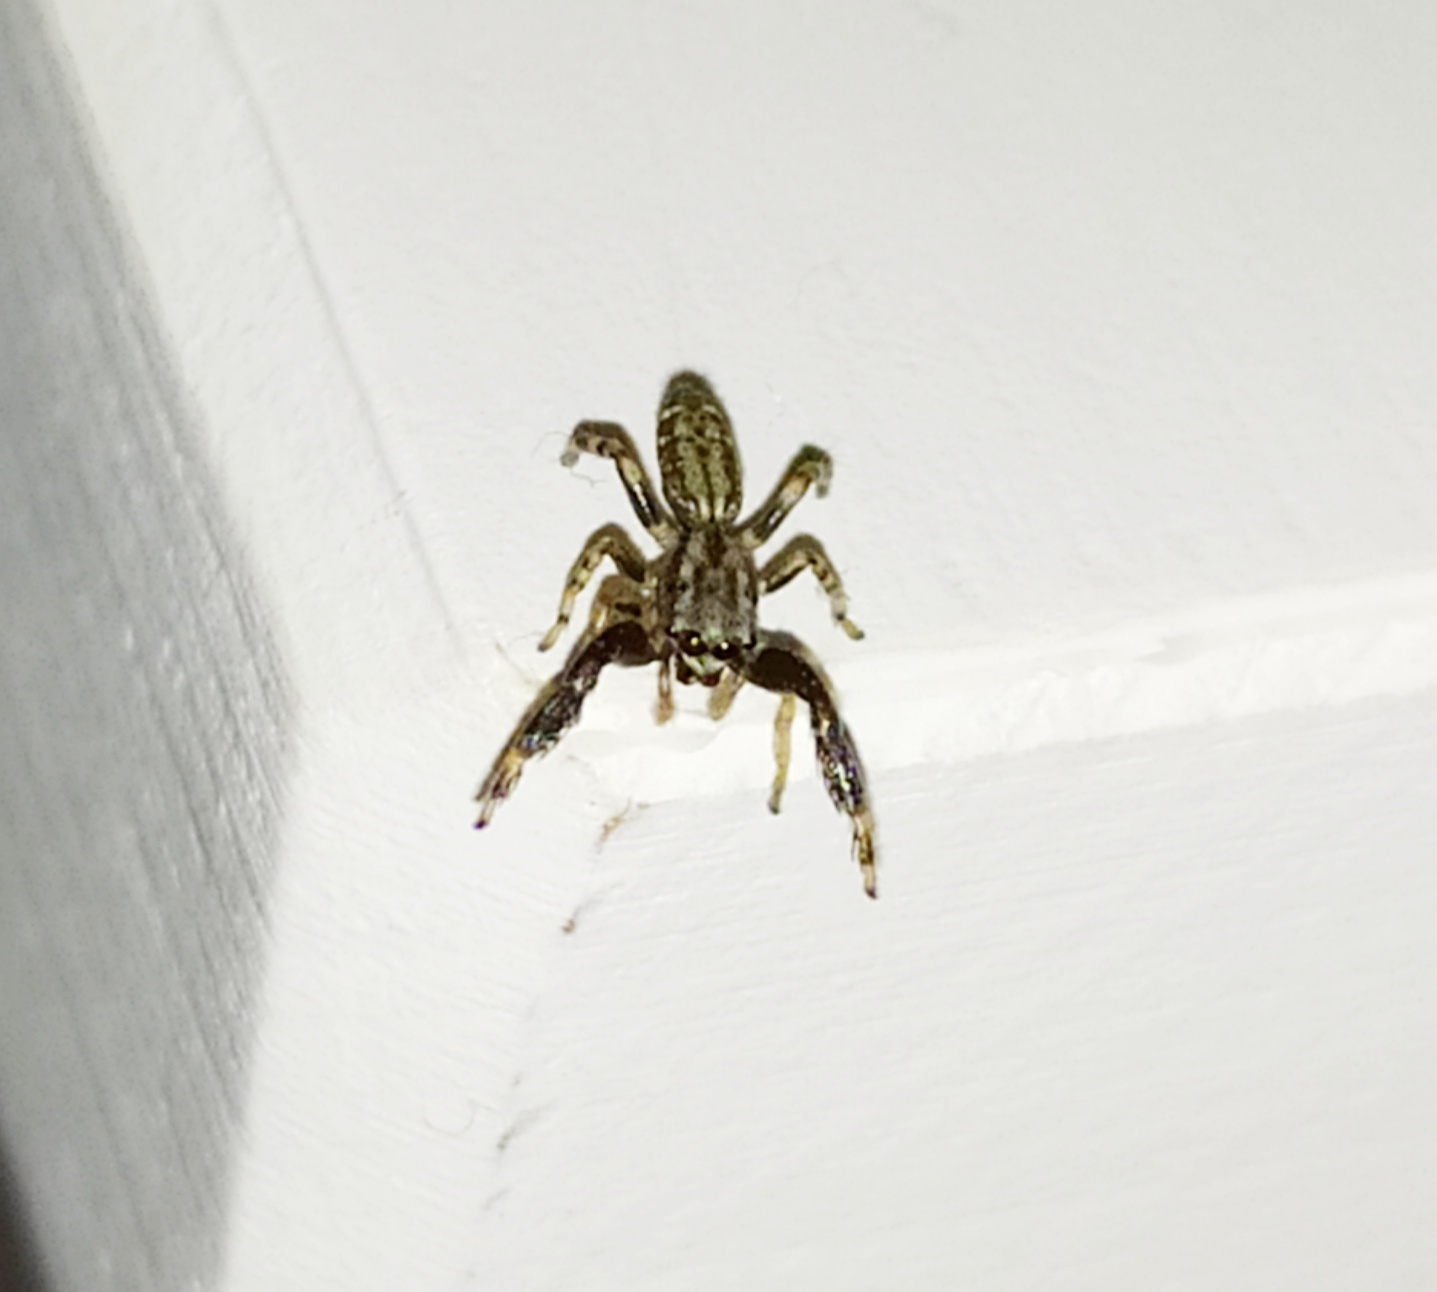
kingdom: Animalia
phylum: Arthropoda
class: Arachnida
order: Araneae
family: Salticidae
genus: Marpissa
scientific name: Marpissa nivoyi
